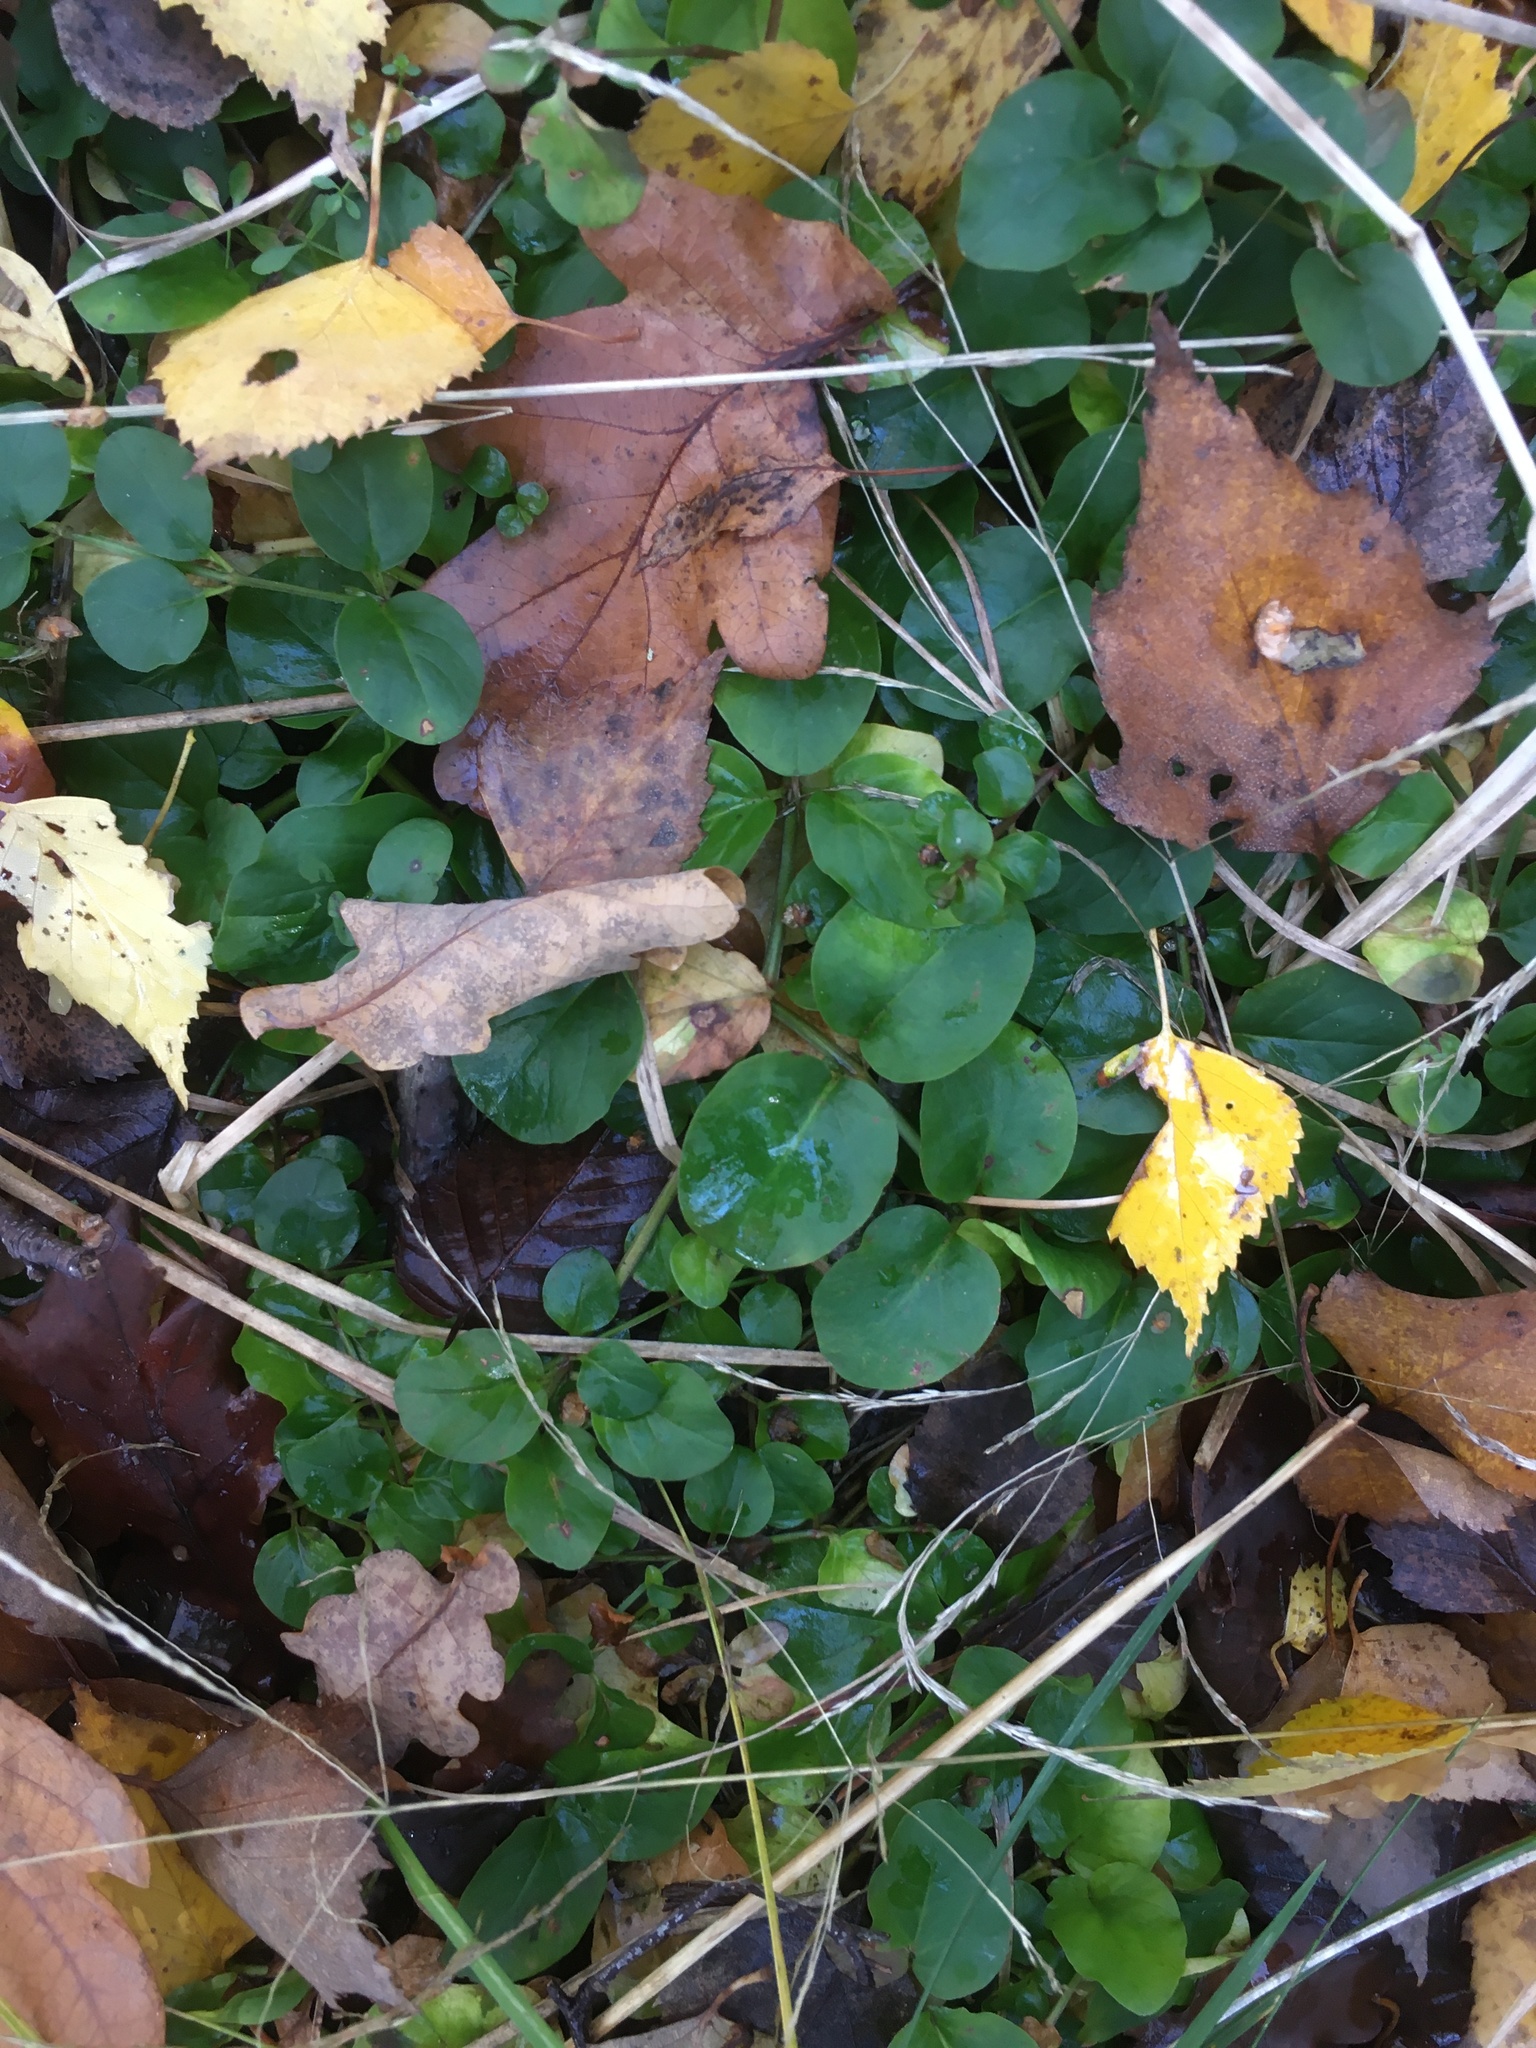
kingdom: Plantae
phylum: Tracheophyta
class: Magnoliopsida
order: Ericales
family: Primulaceae
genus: Lysimachia
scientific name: Lysimachia nummularia
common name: Moneywort
